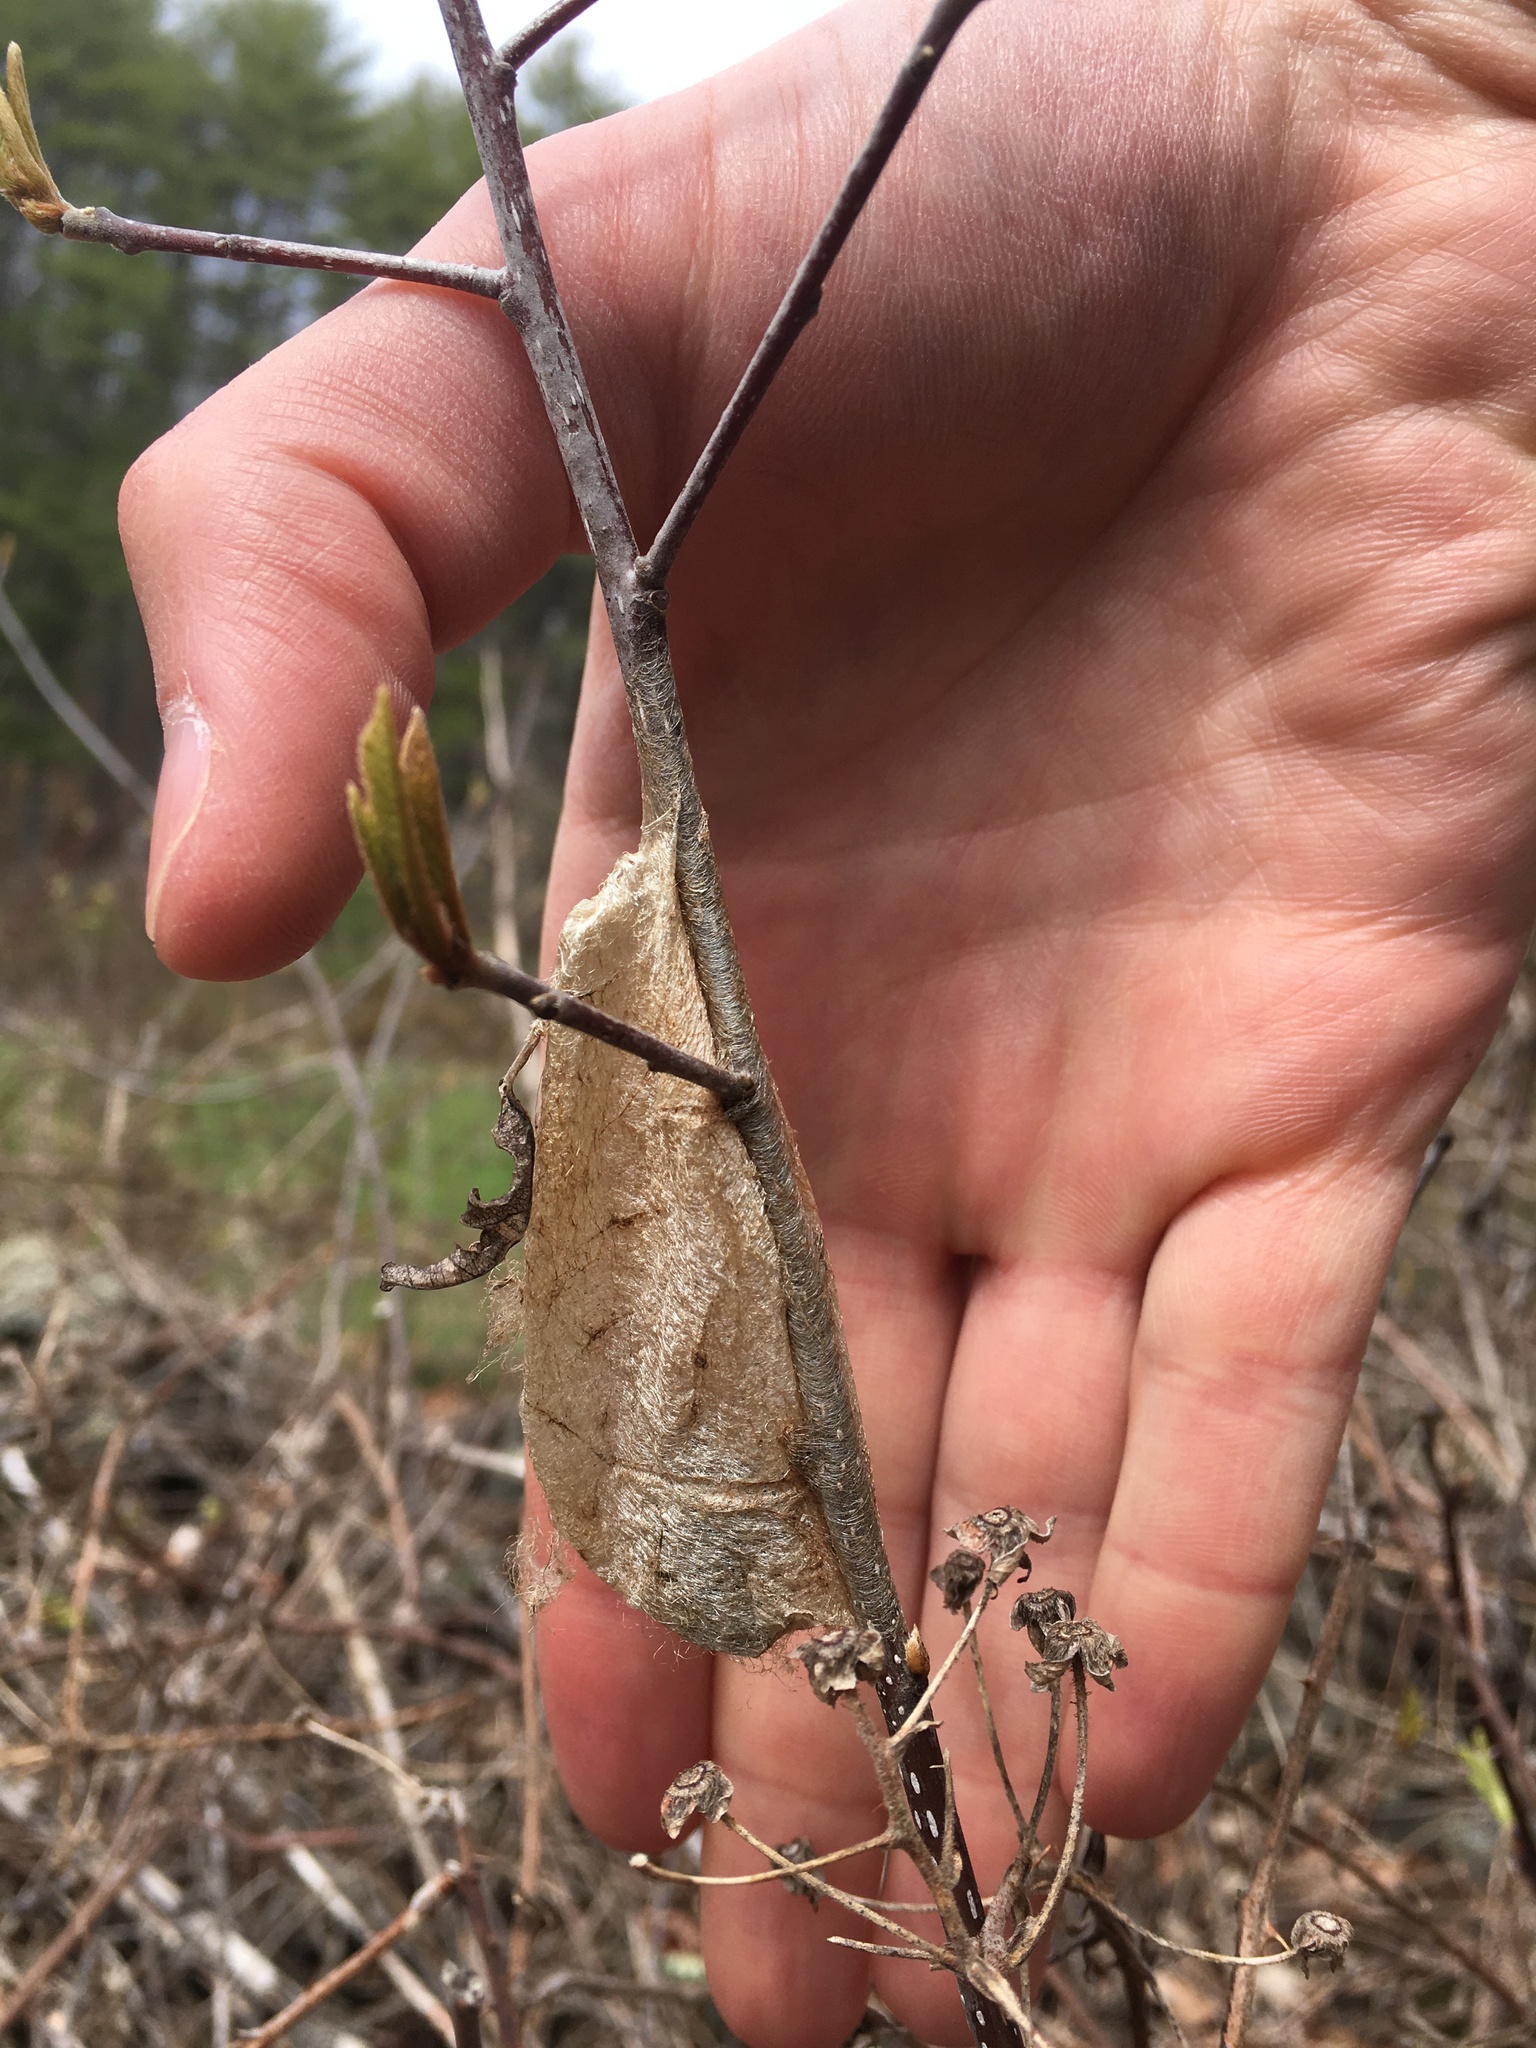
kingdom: Animalia
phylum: Arthropoda
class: Insecta
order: Lepidoptera
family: Saturniidae
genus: Hyalophora
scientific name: Hyalophora cecropia
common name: Cecropia silkmoth
